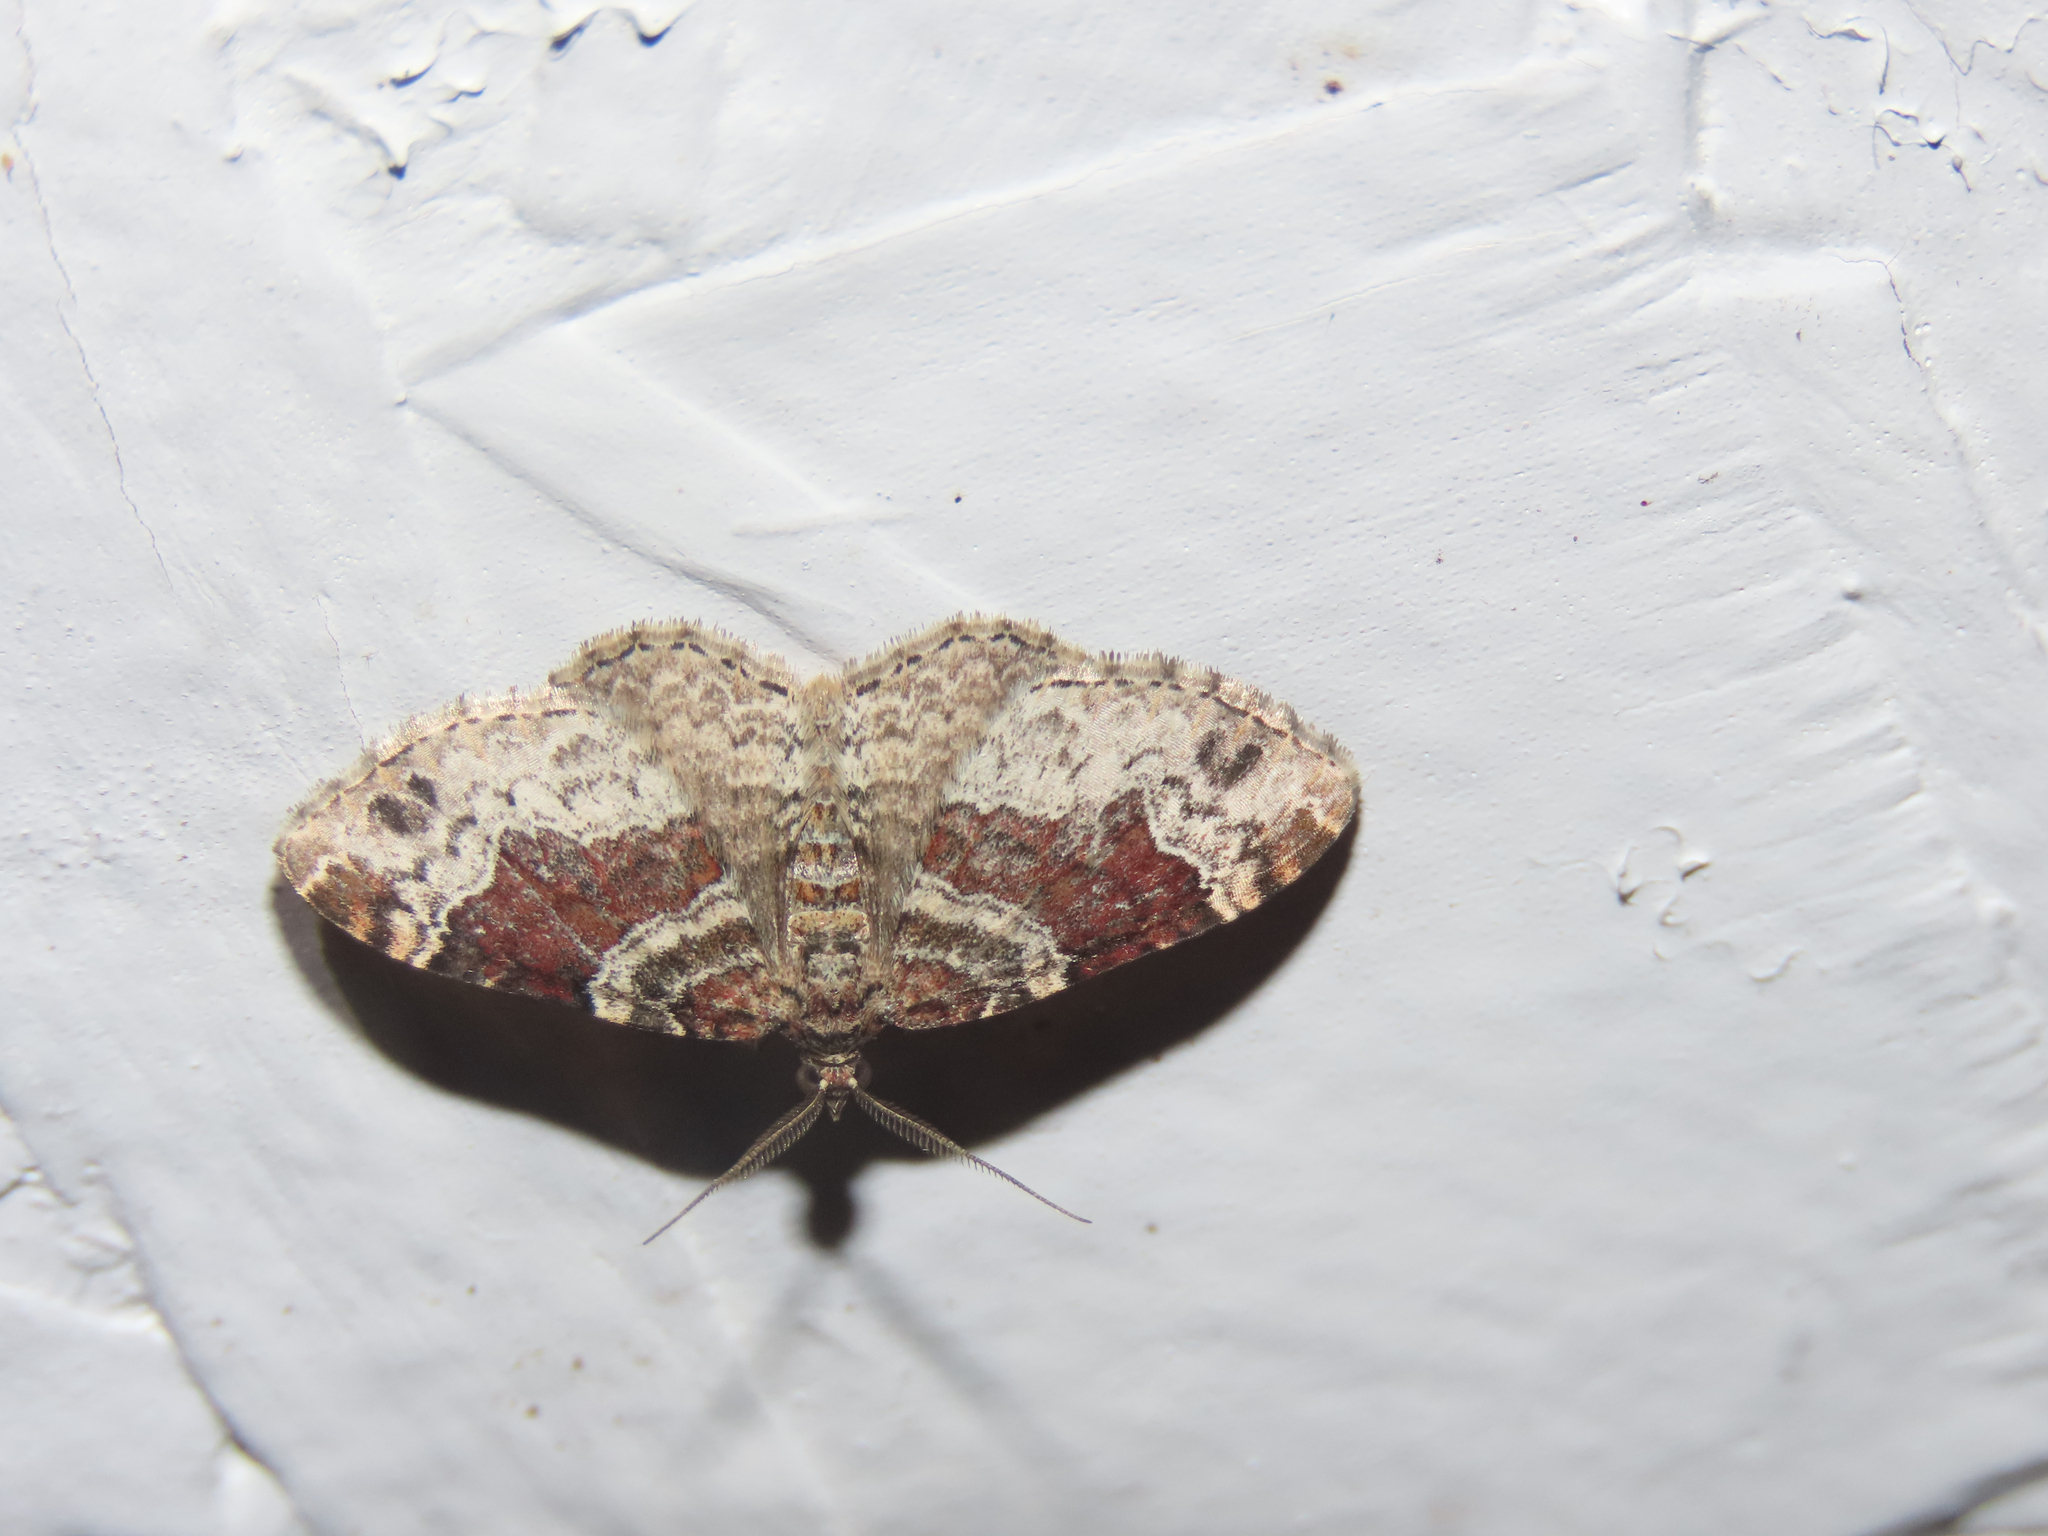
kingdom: Animalia
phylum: Arthropoda
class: Insecta
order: Lepidoptera
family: Geometridae
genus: Xanthorhoe
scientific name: Xanthorhoe ferrugata
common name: Dark-barred twin-spot carpet
